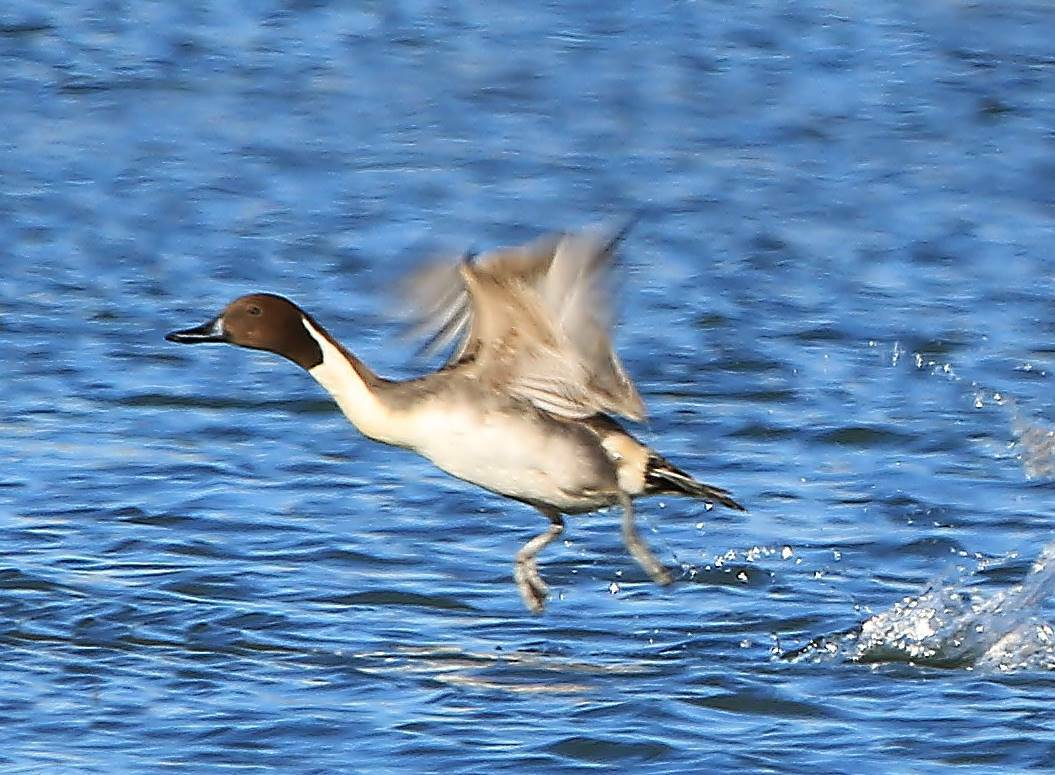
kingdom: Animalia
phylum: Chordata
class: Aves
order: Anseriformes
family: Anatidae
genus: Anas
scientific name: Anas acuta
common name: Northern pintail
